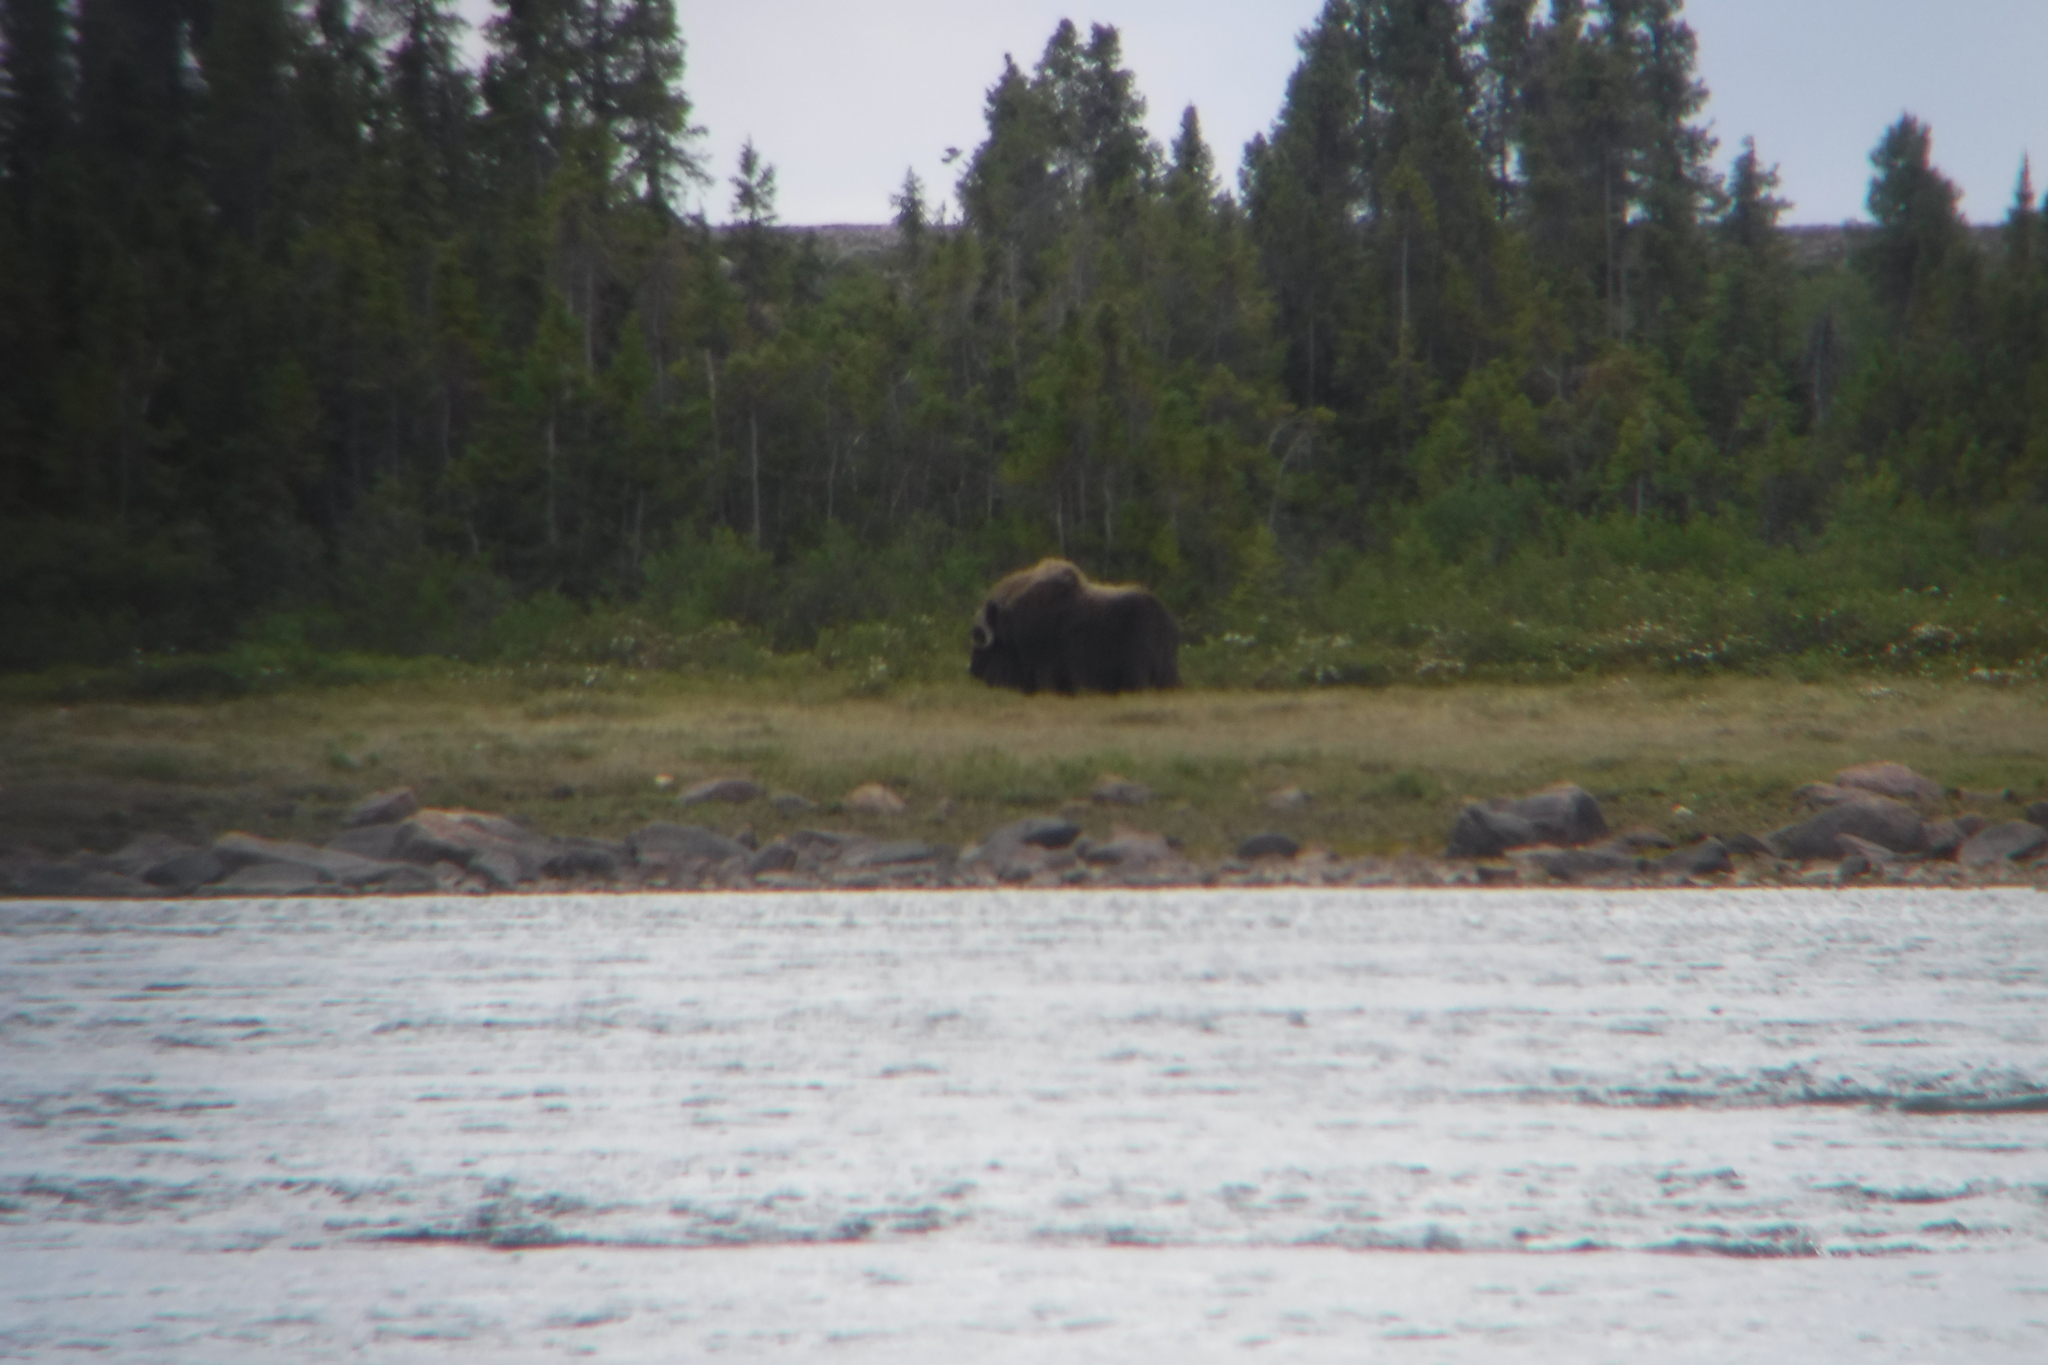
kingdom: Animalia
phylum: Chordata
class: Mammalia
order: Artiodactyla
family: Bovidae
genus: Ovibos
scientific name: Ovibos moschatus
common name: Muskox
